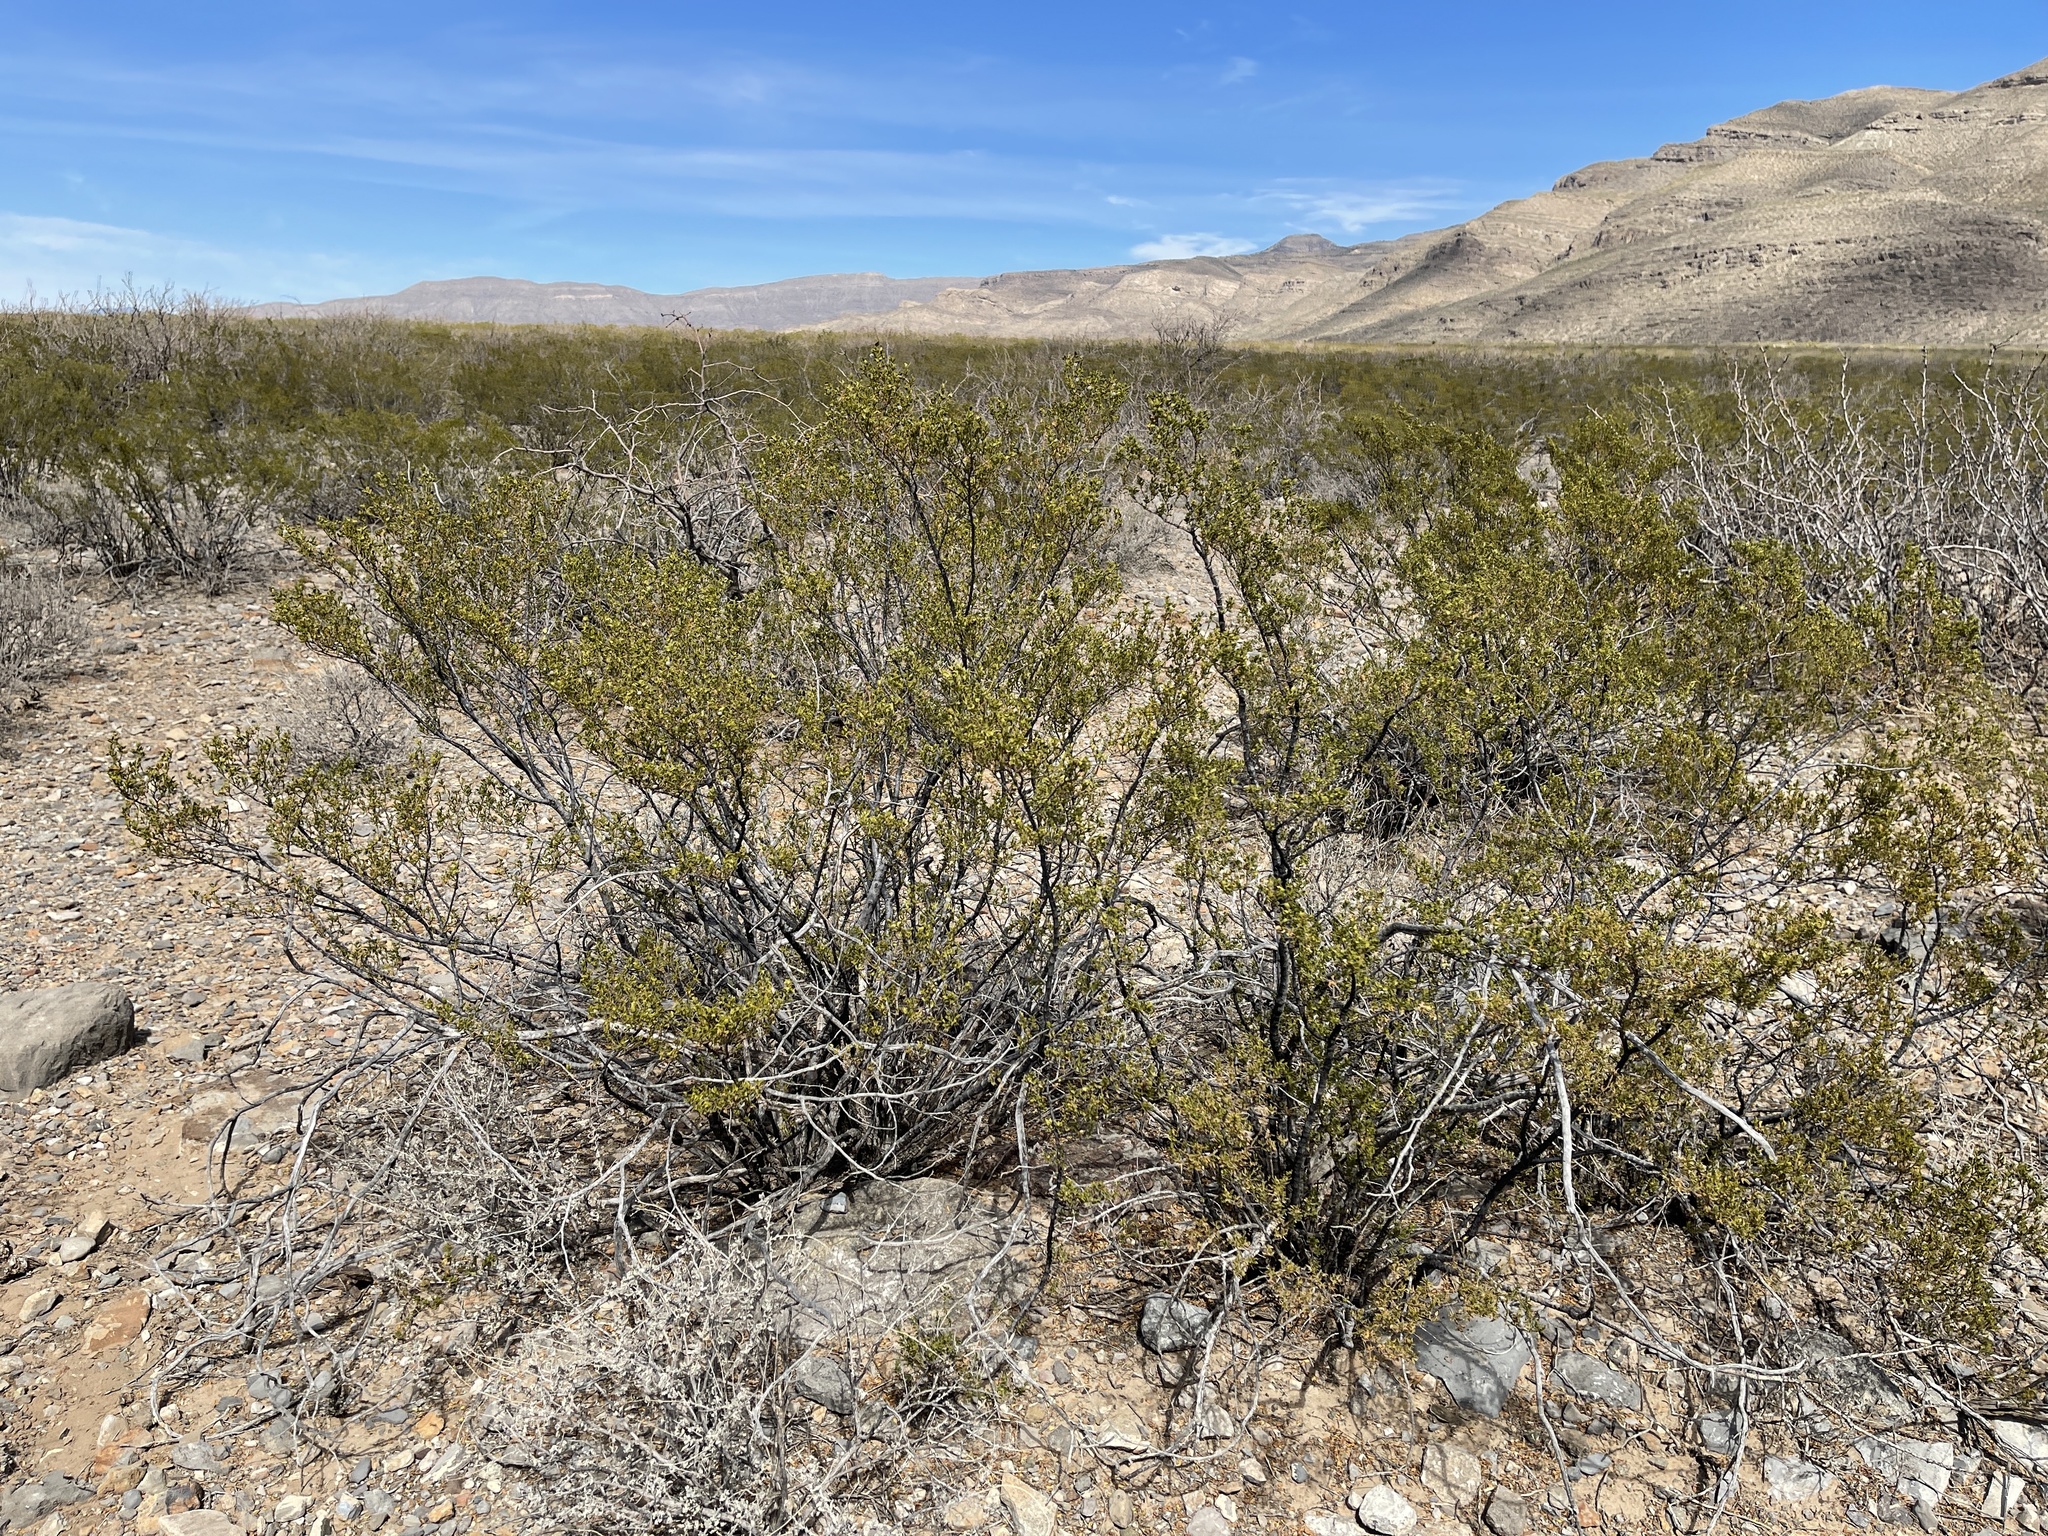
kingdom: Plantae
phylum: Tracheophyta
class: Magnoliopsida
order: Zygophyllales
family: Zygophyllaceae
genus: Larrea
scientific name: Larrea tridentata
